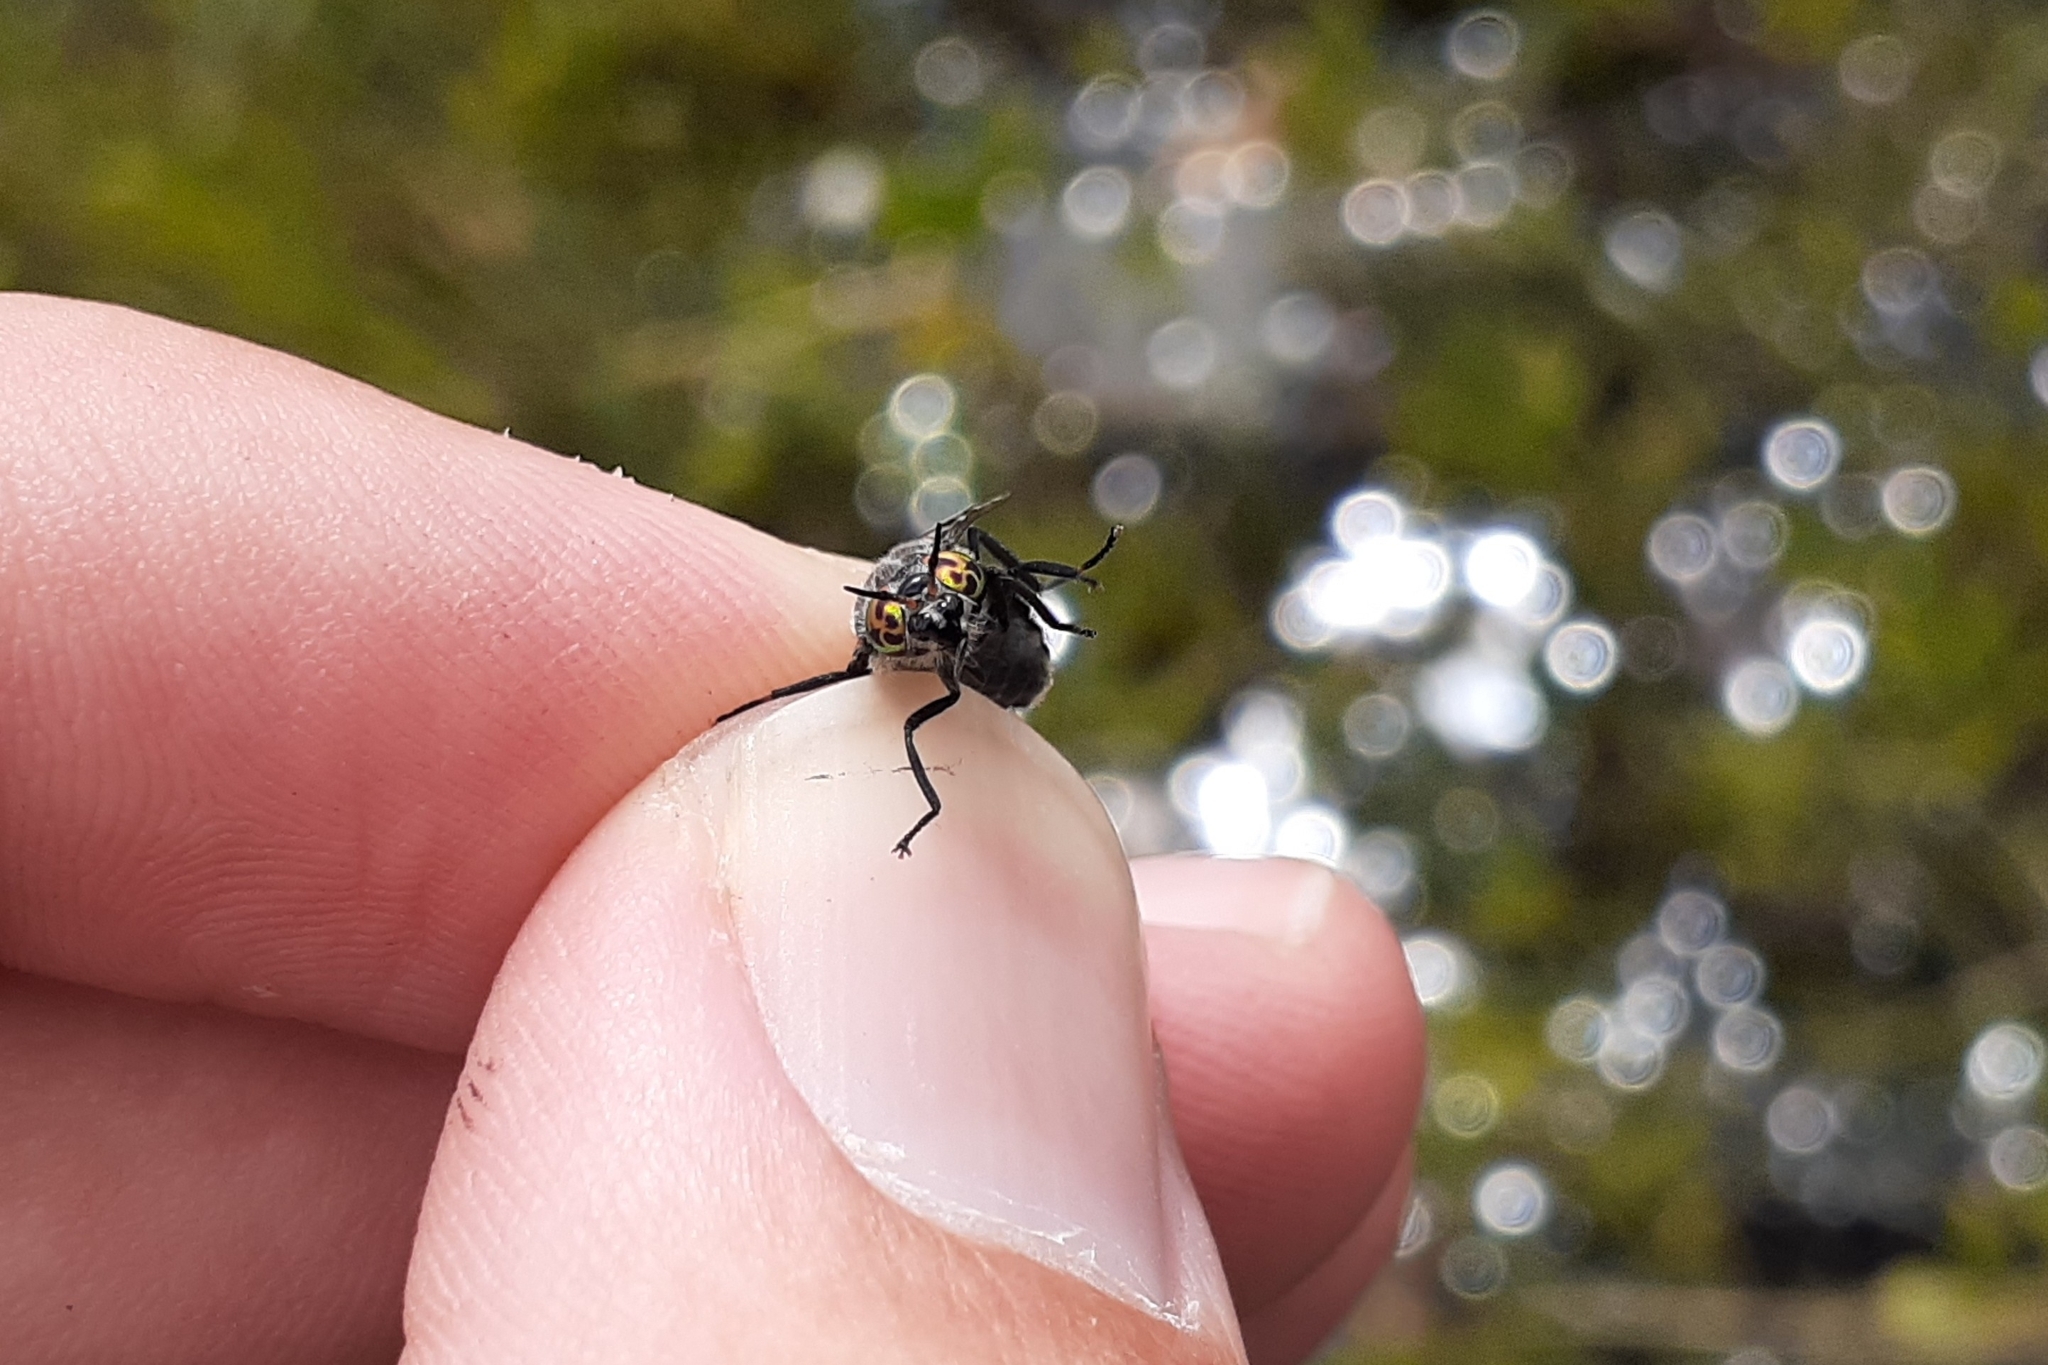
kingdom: Animalia
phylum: Arthropoda
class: Insecta
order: Diptera
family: Tabanidae
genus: Chrysops
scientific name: Chrysops mitis
